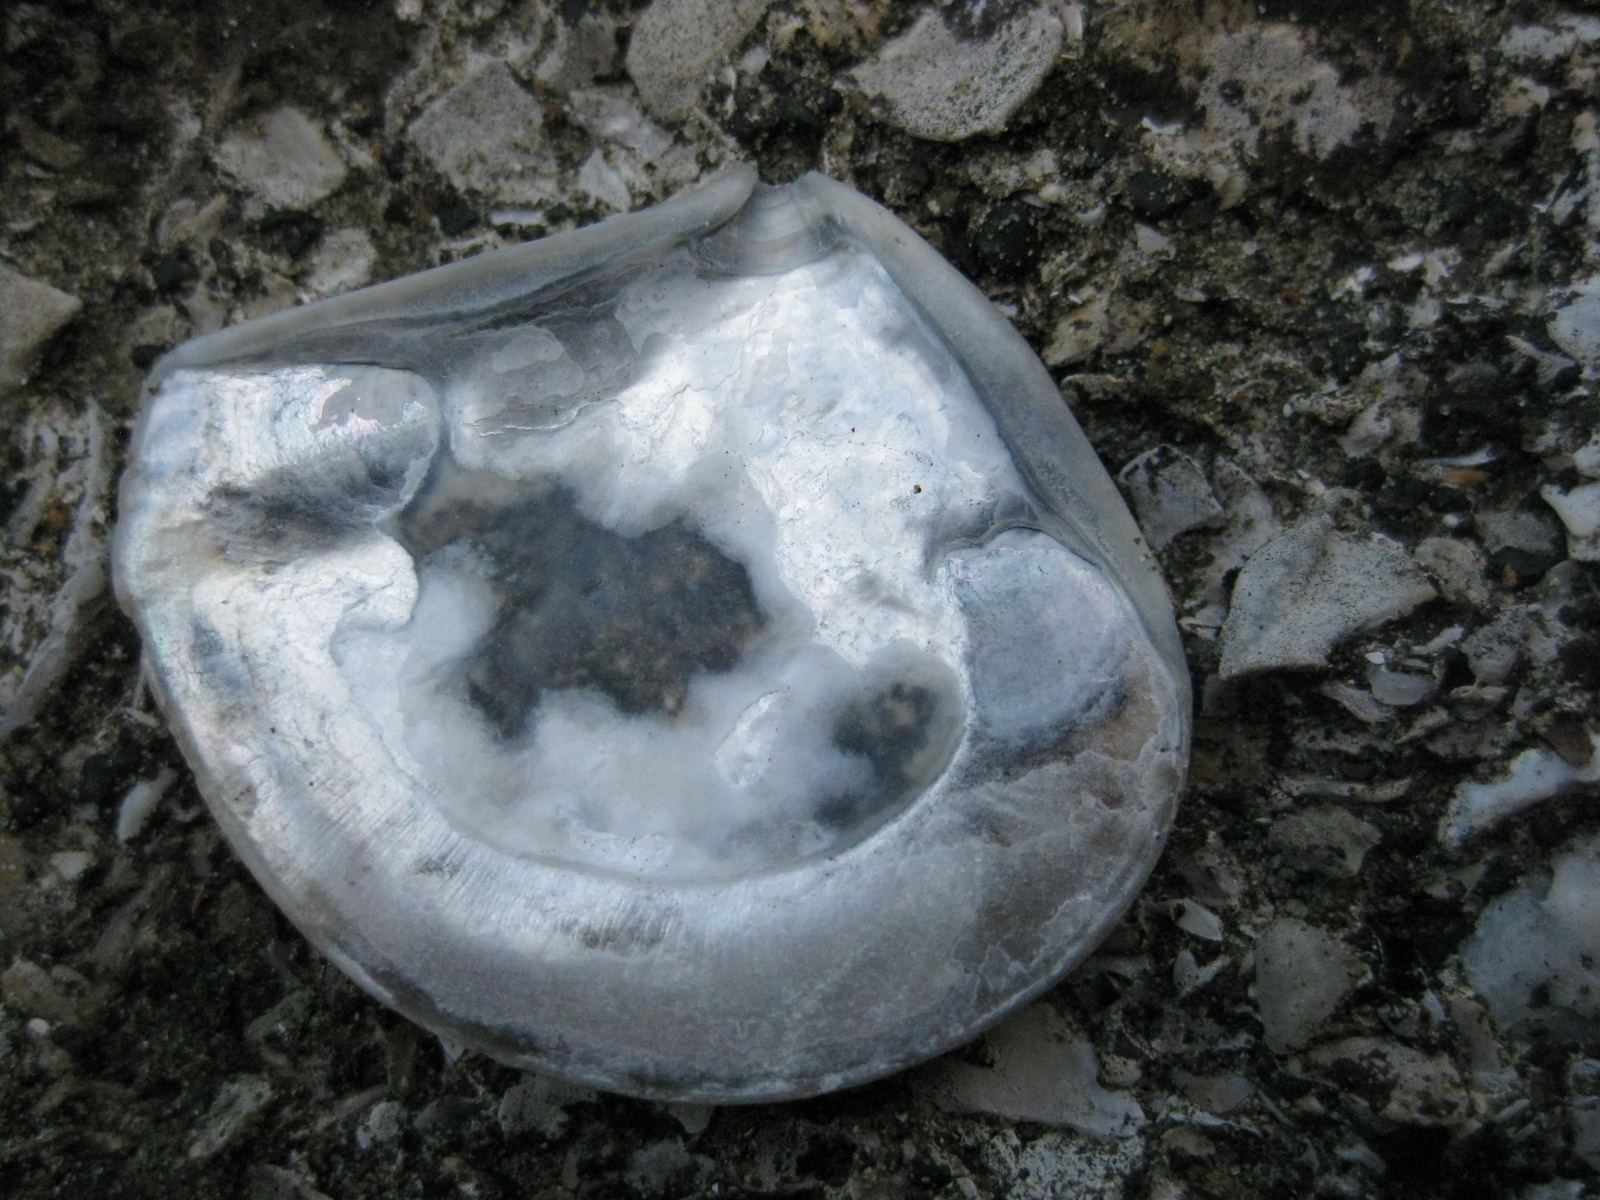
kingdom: Animalia
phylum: Mollusca
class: Bivalvia
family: Myochamidae
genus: Myadora
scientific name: Myadora striata
